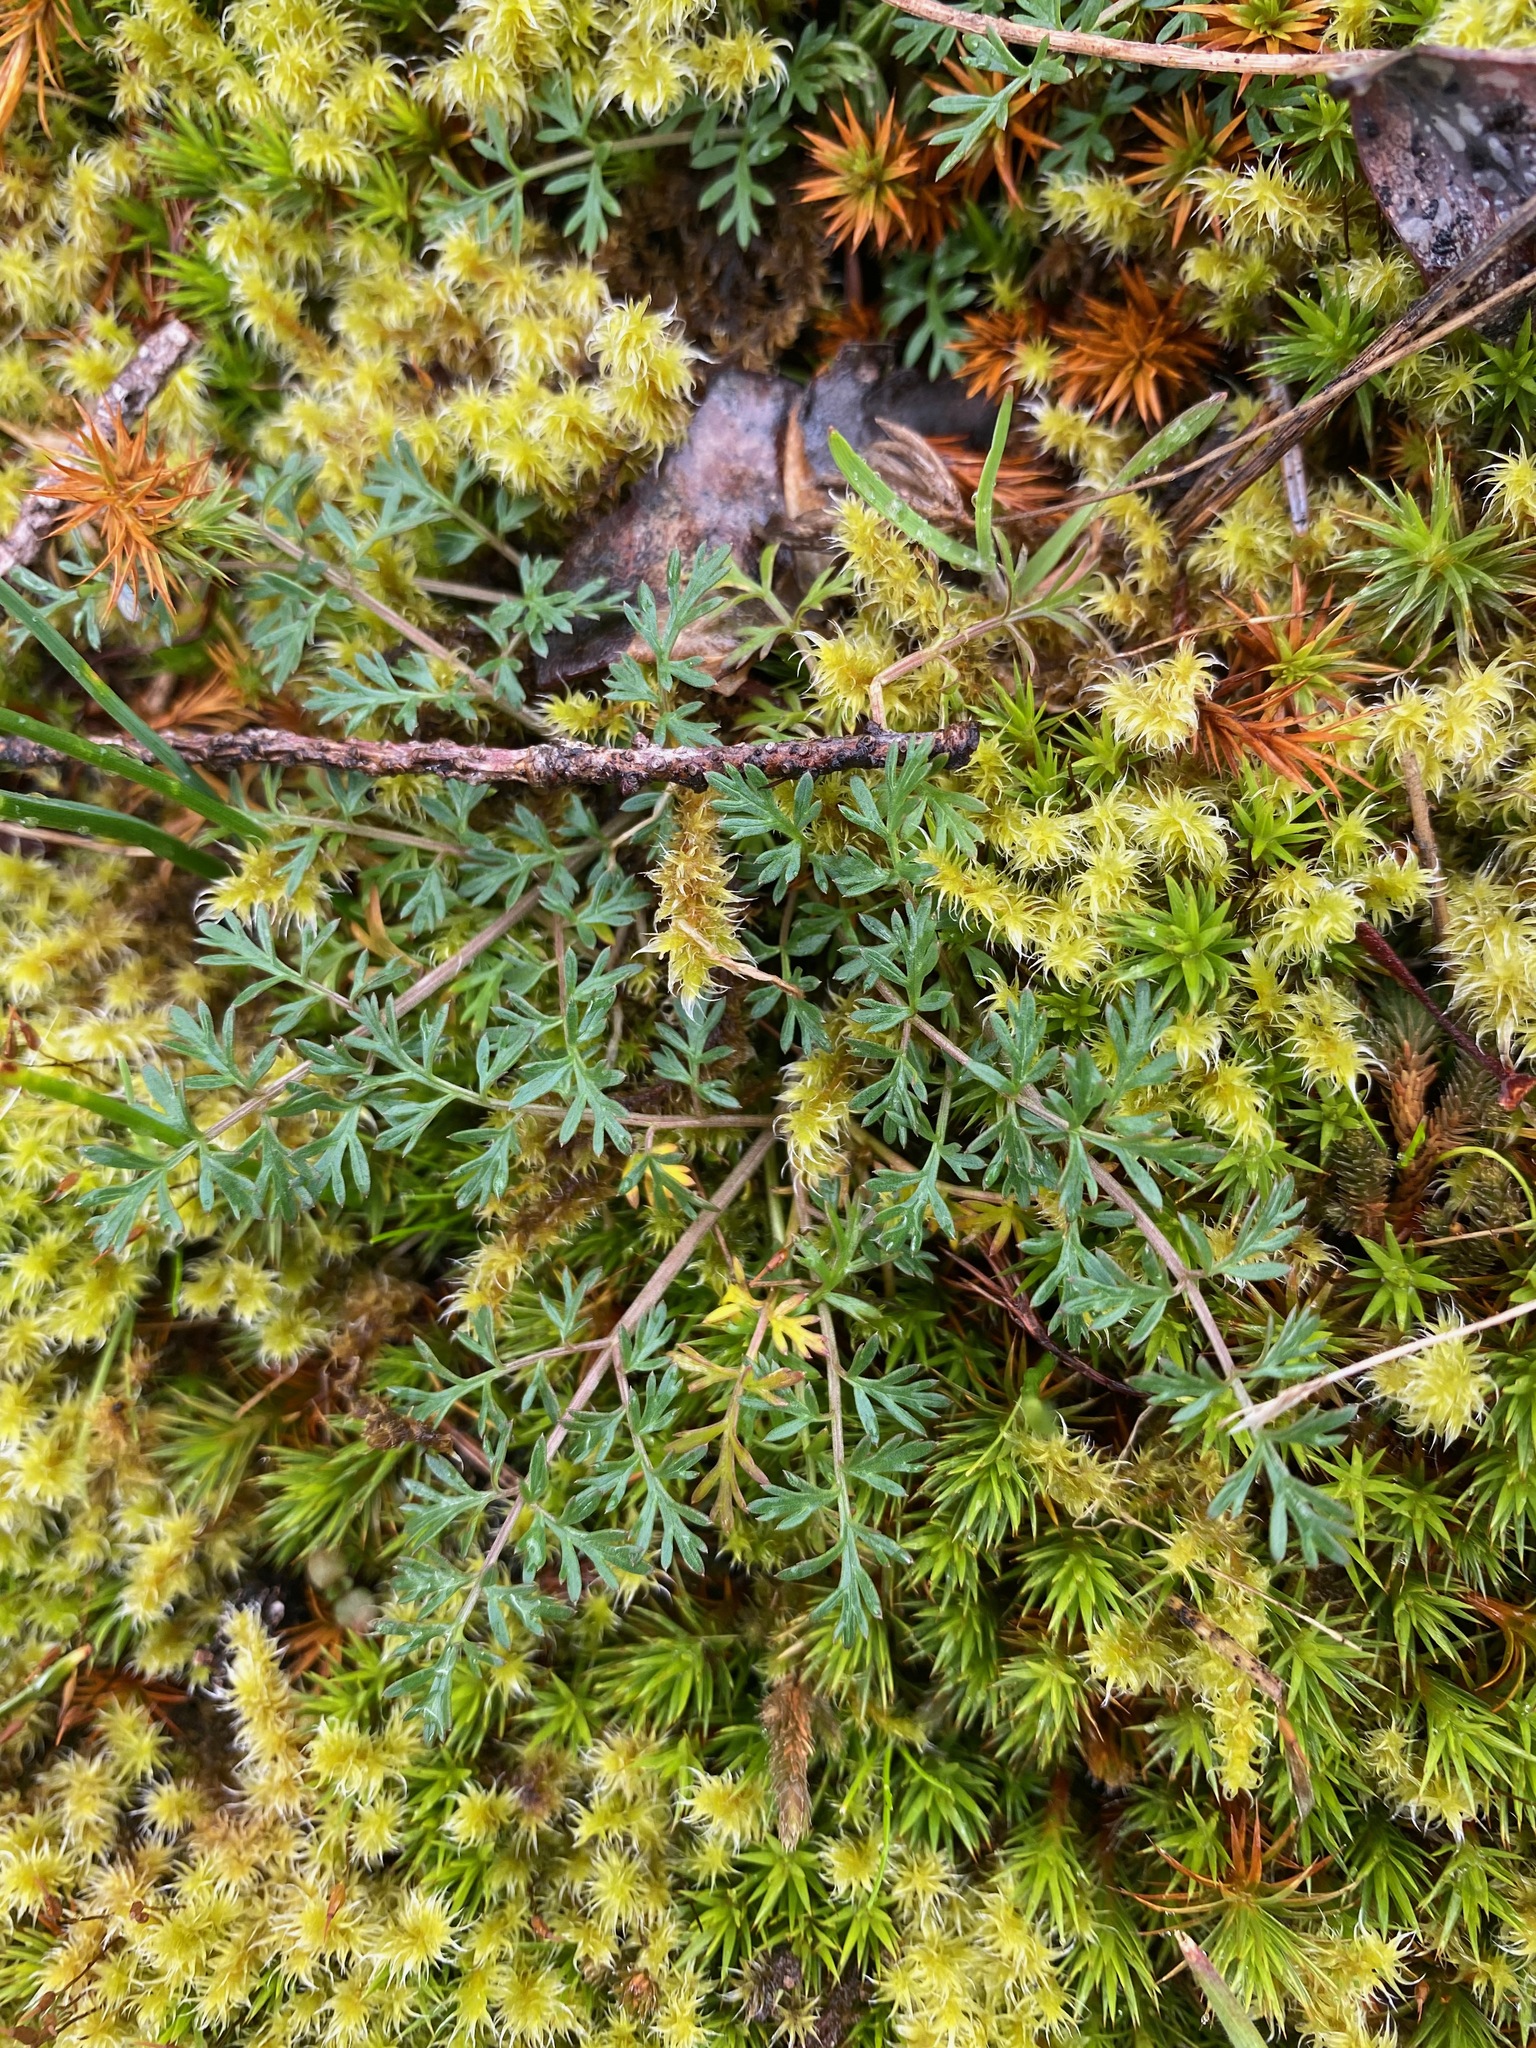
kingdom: Plantae
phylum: Tracheophyta
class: Magnoliopsida
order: Apiales
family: Apiaceae
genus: Lomatium
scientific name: Lomatium utriculatum
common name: Fine-leaf desert-parsley
